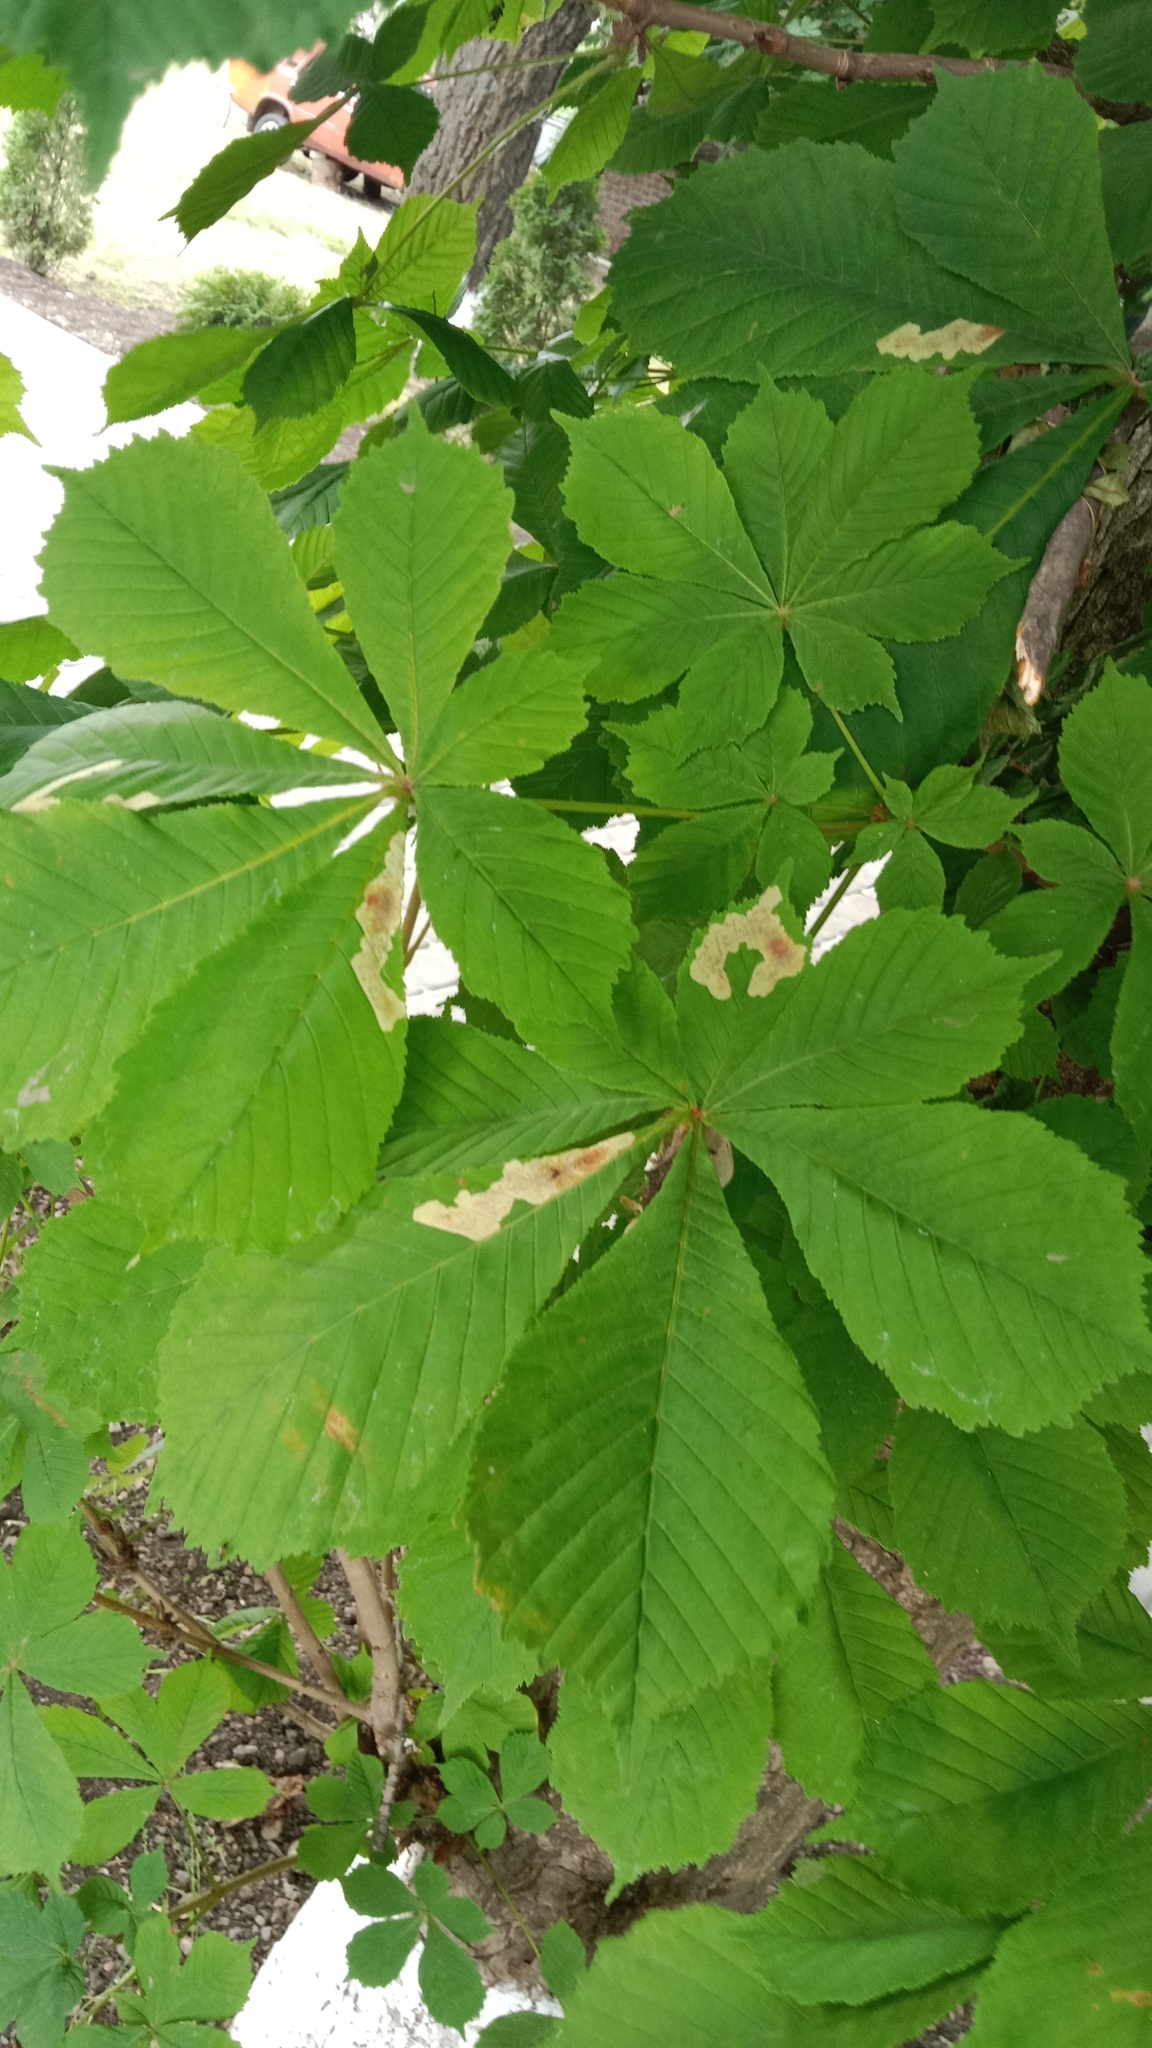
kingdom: Animalia
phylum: Arthropoda
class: Insecta
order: Lepidoptera
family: Gracillariidae
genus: Cameraria
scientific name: Cameraria ohridella
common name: Horse-chestnut leaf-miner
